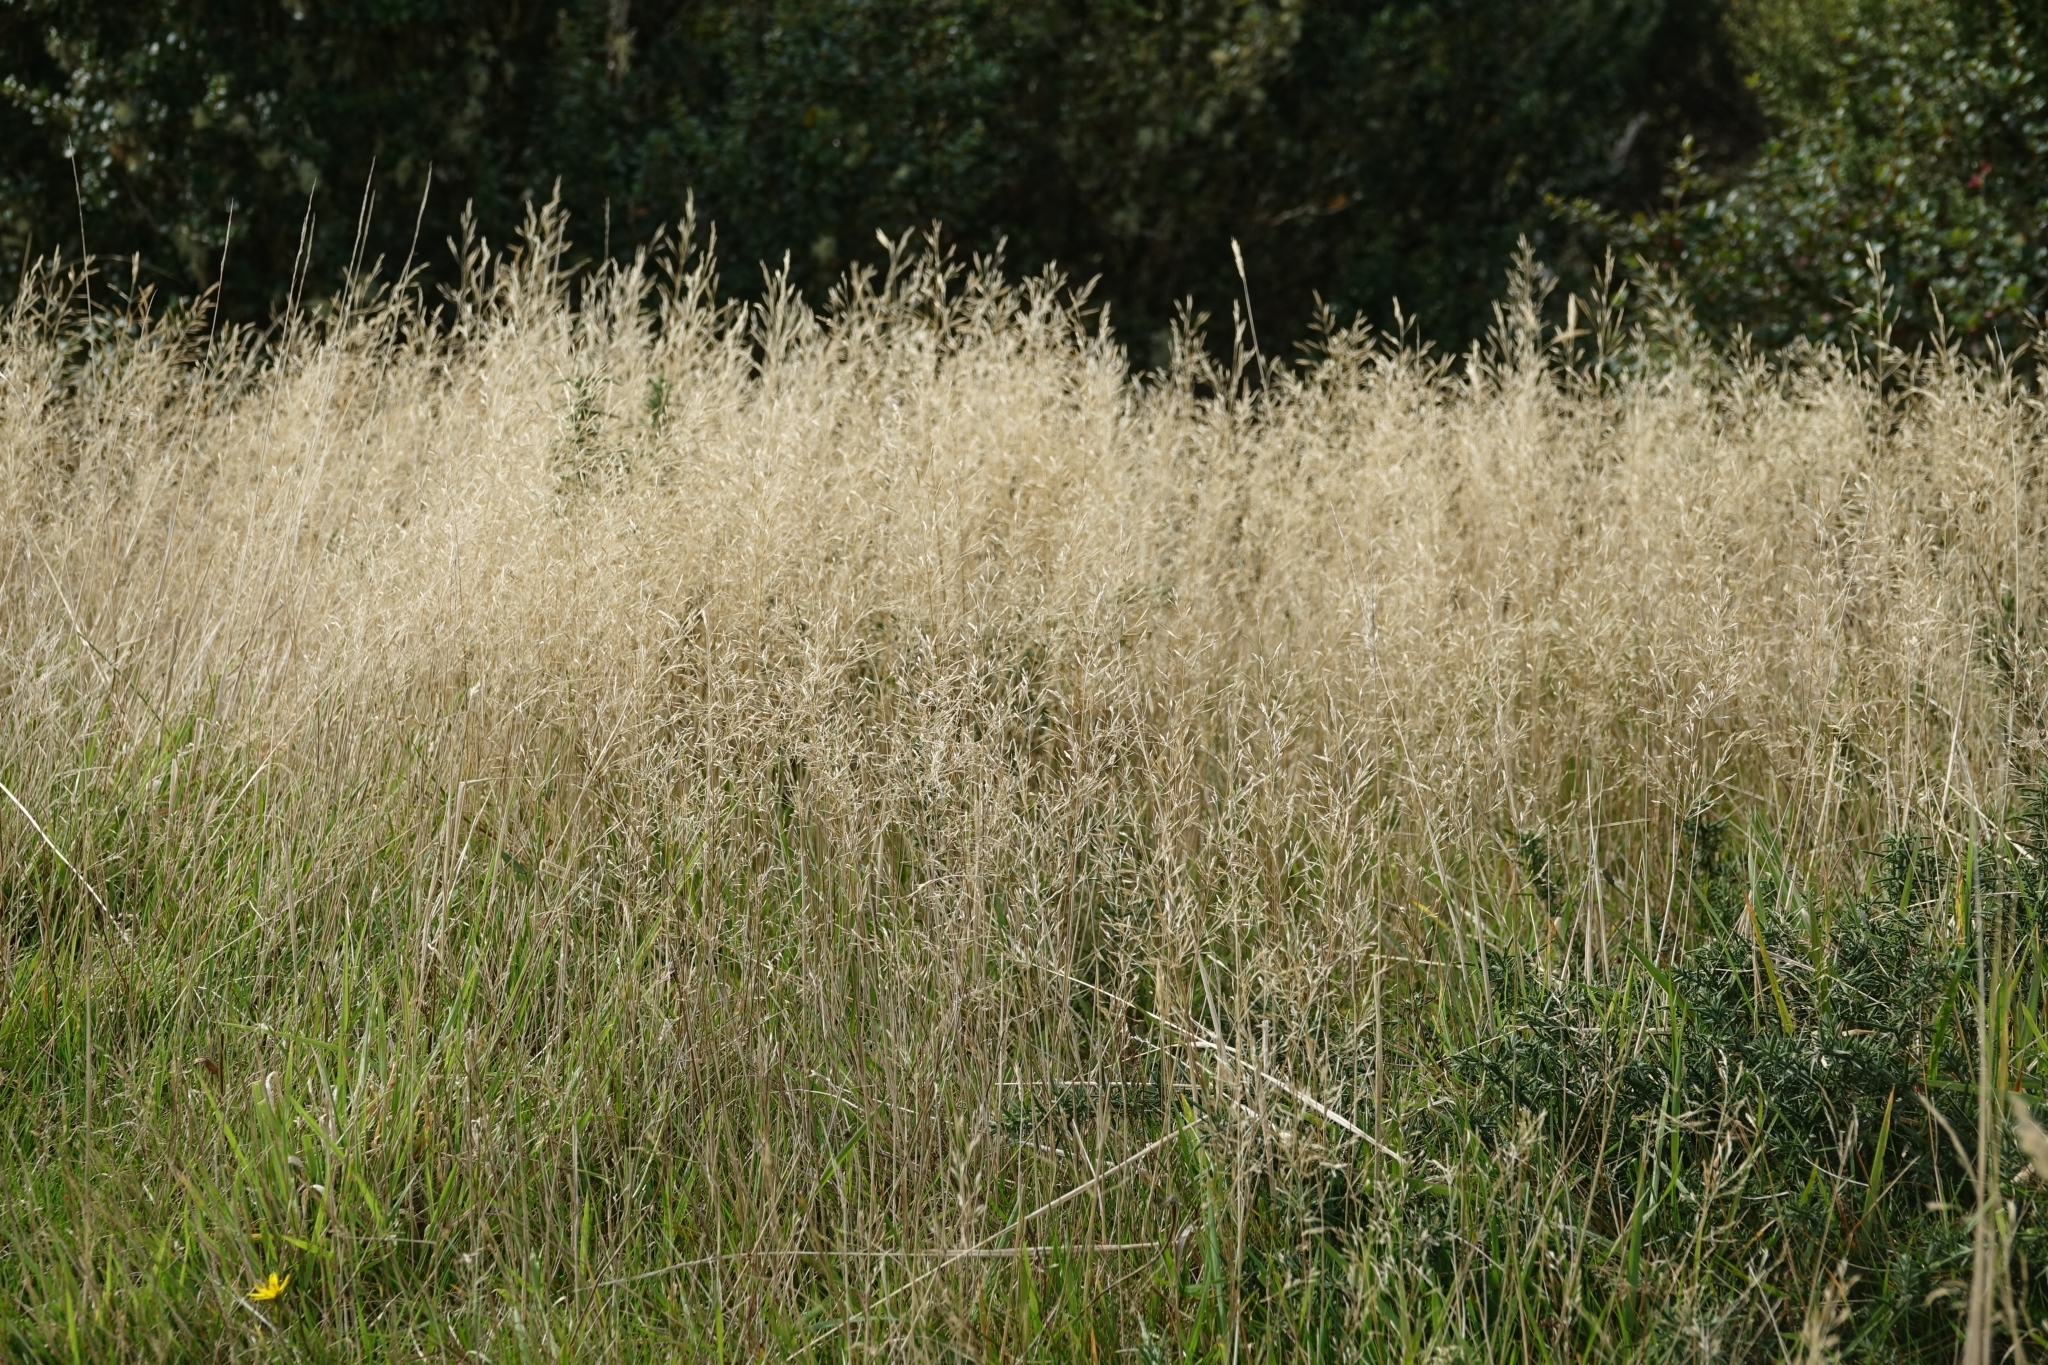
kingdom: Plantae
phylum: Tracheophyta
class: Liliopsida
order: Poales
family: Poaceae
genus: Agrostis
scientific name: Agrostis capillaris
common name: Colonial bentgrass
